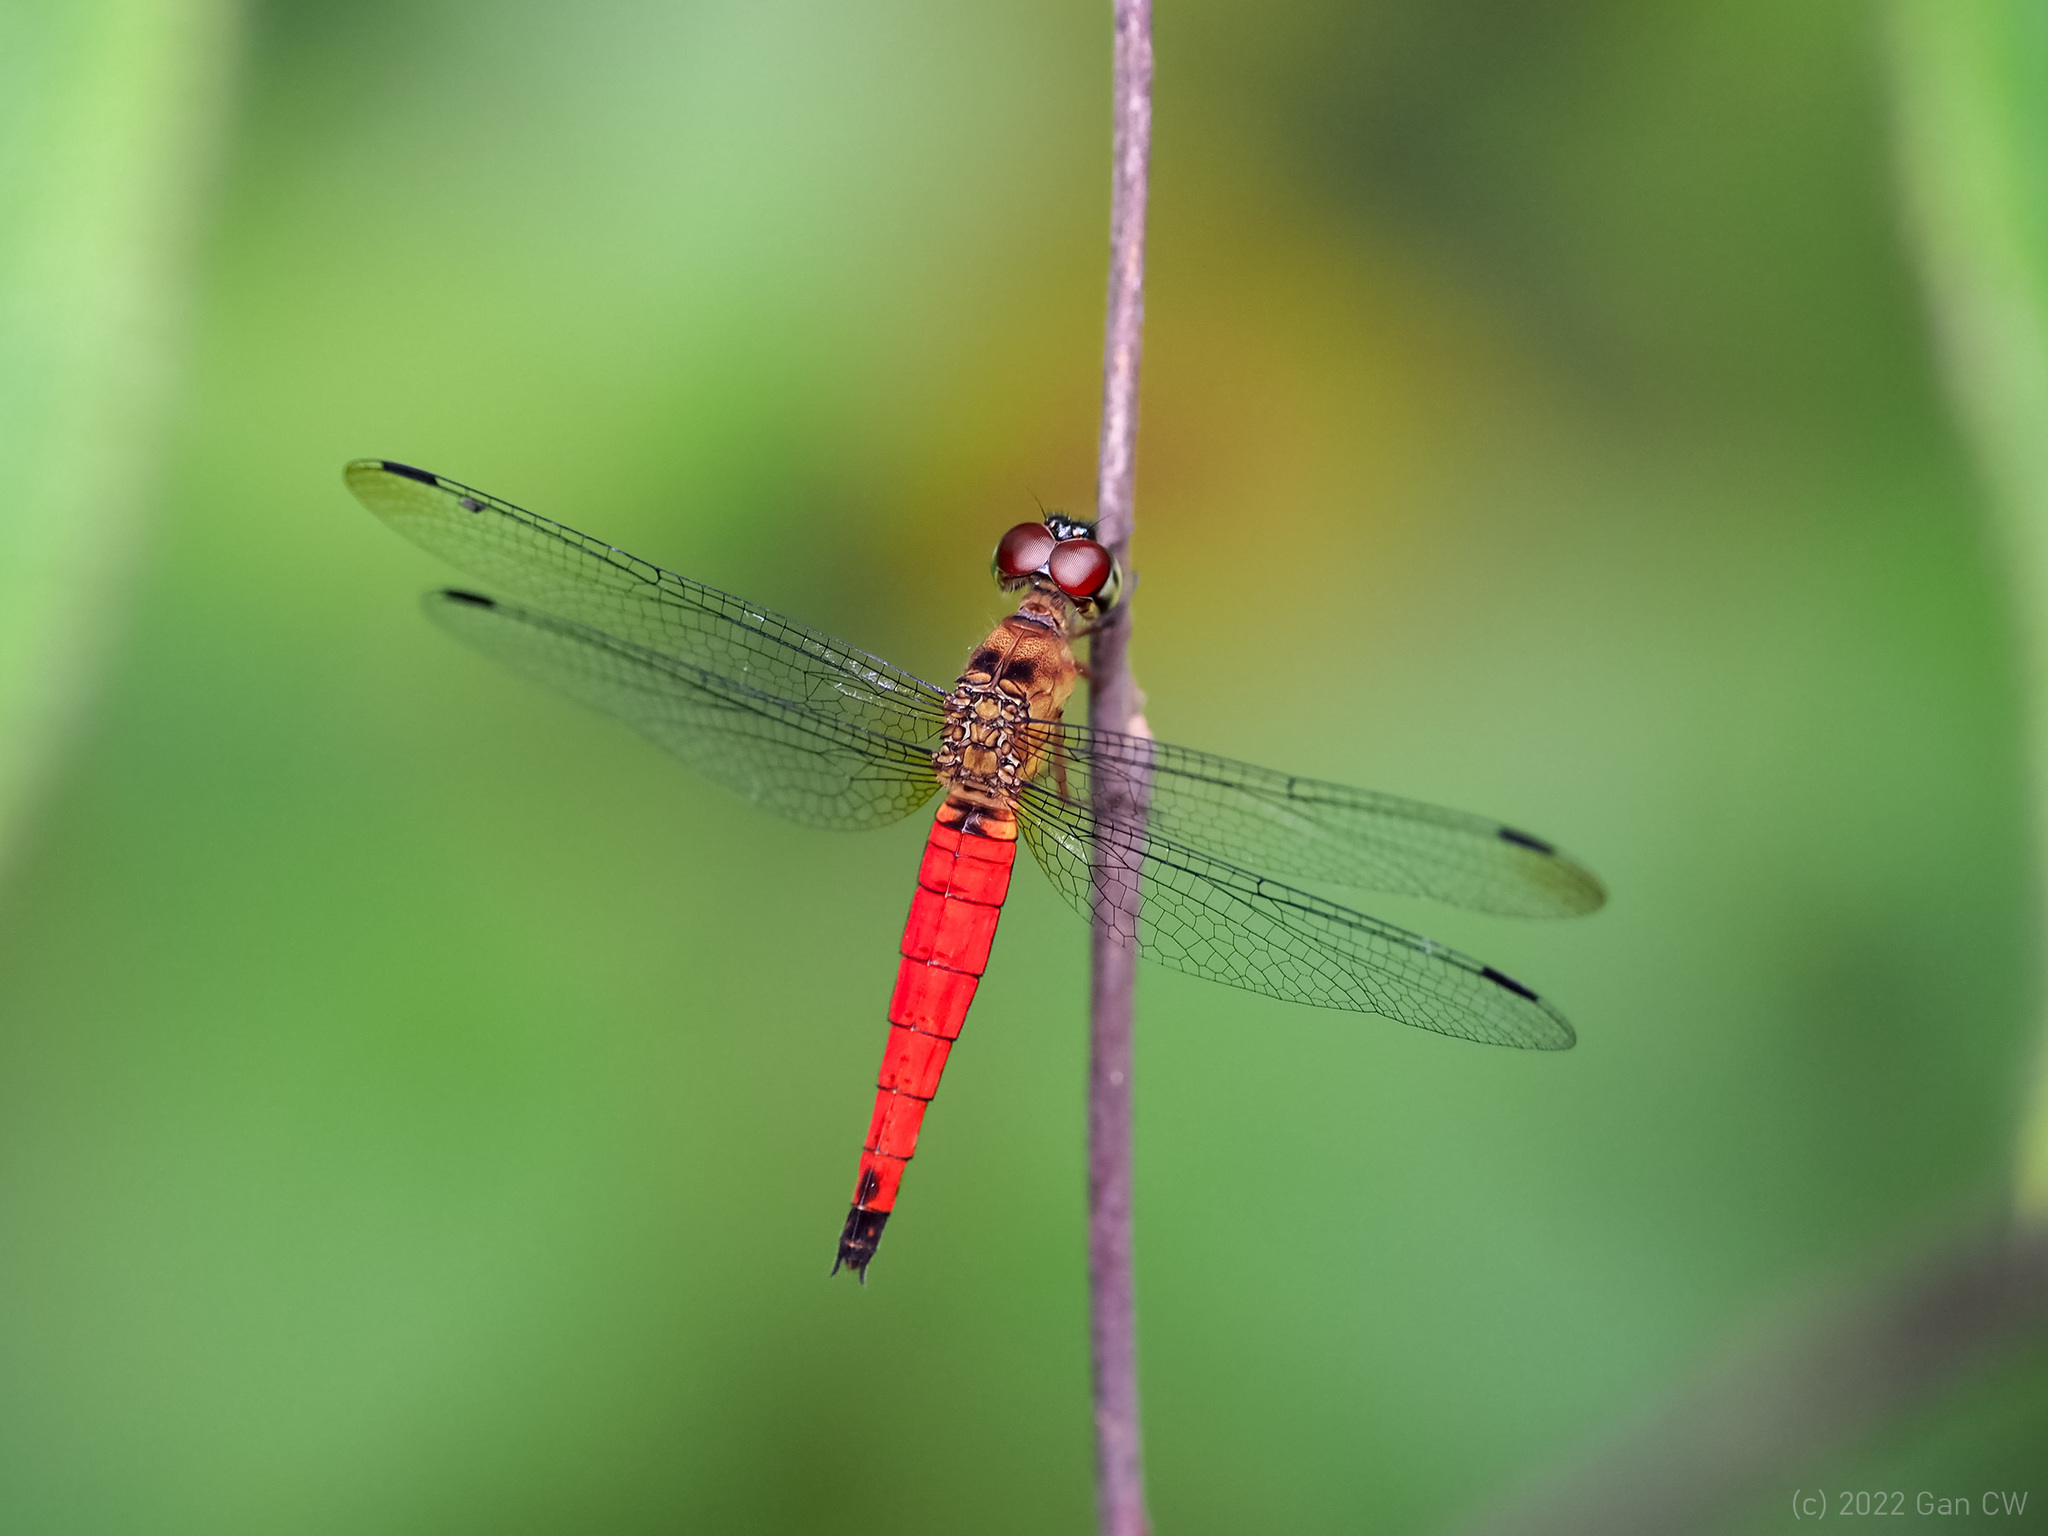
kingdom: Animalia
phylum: Arthropoda
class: Insecta
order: Odonata
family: Libellulidae
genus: Orchithemis
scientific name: Orchithemis pulcherrima
